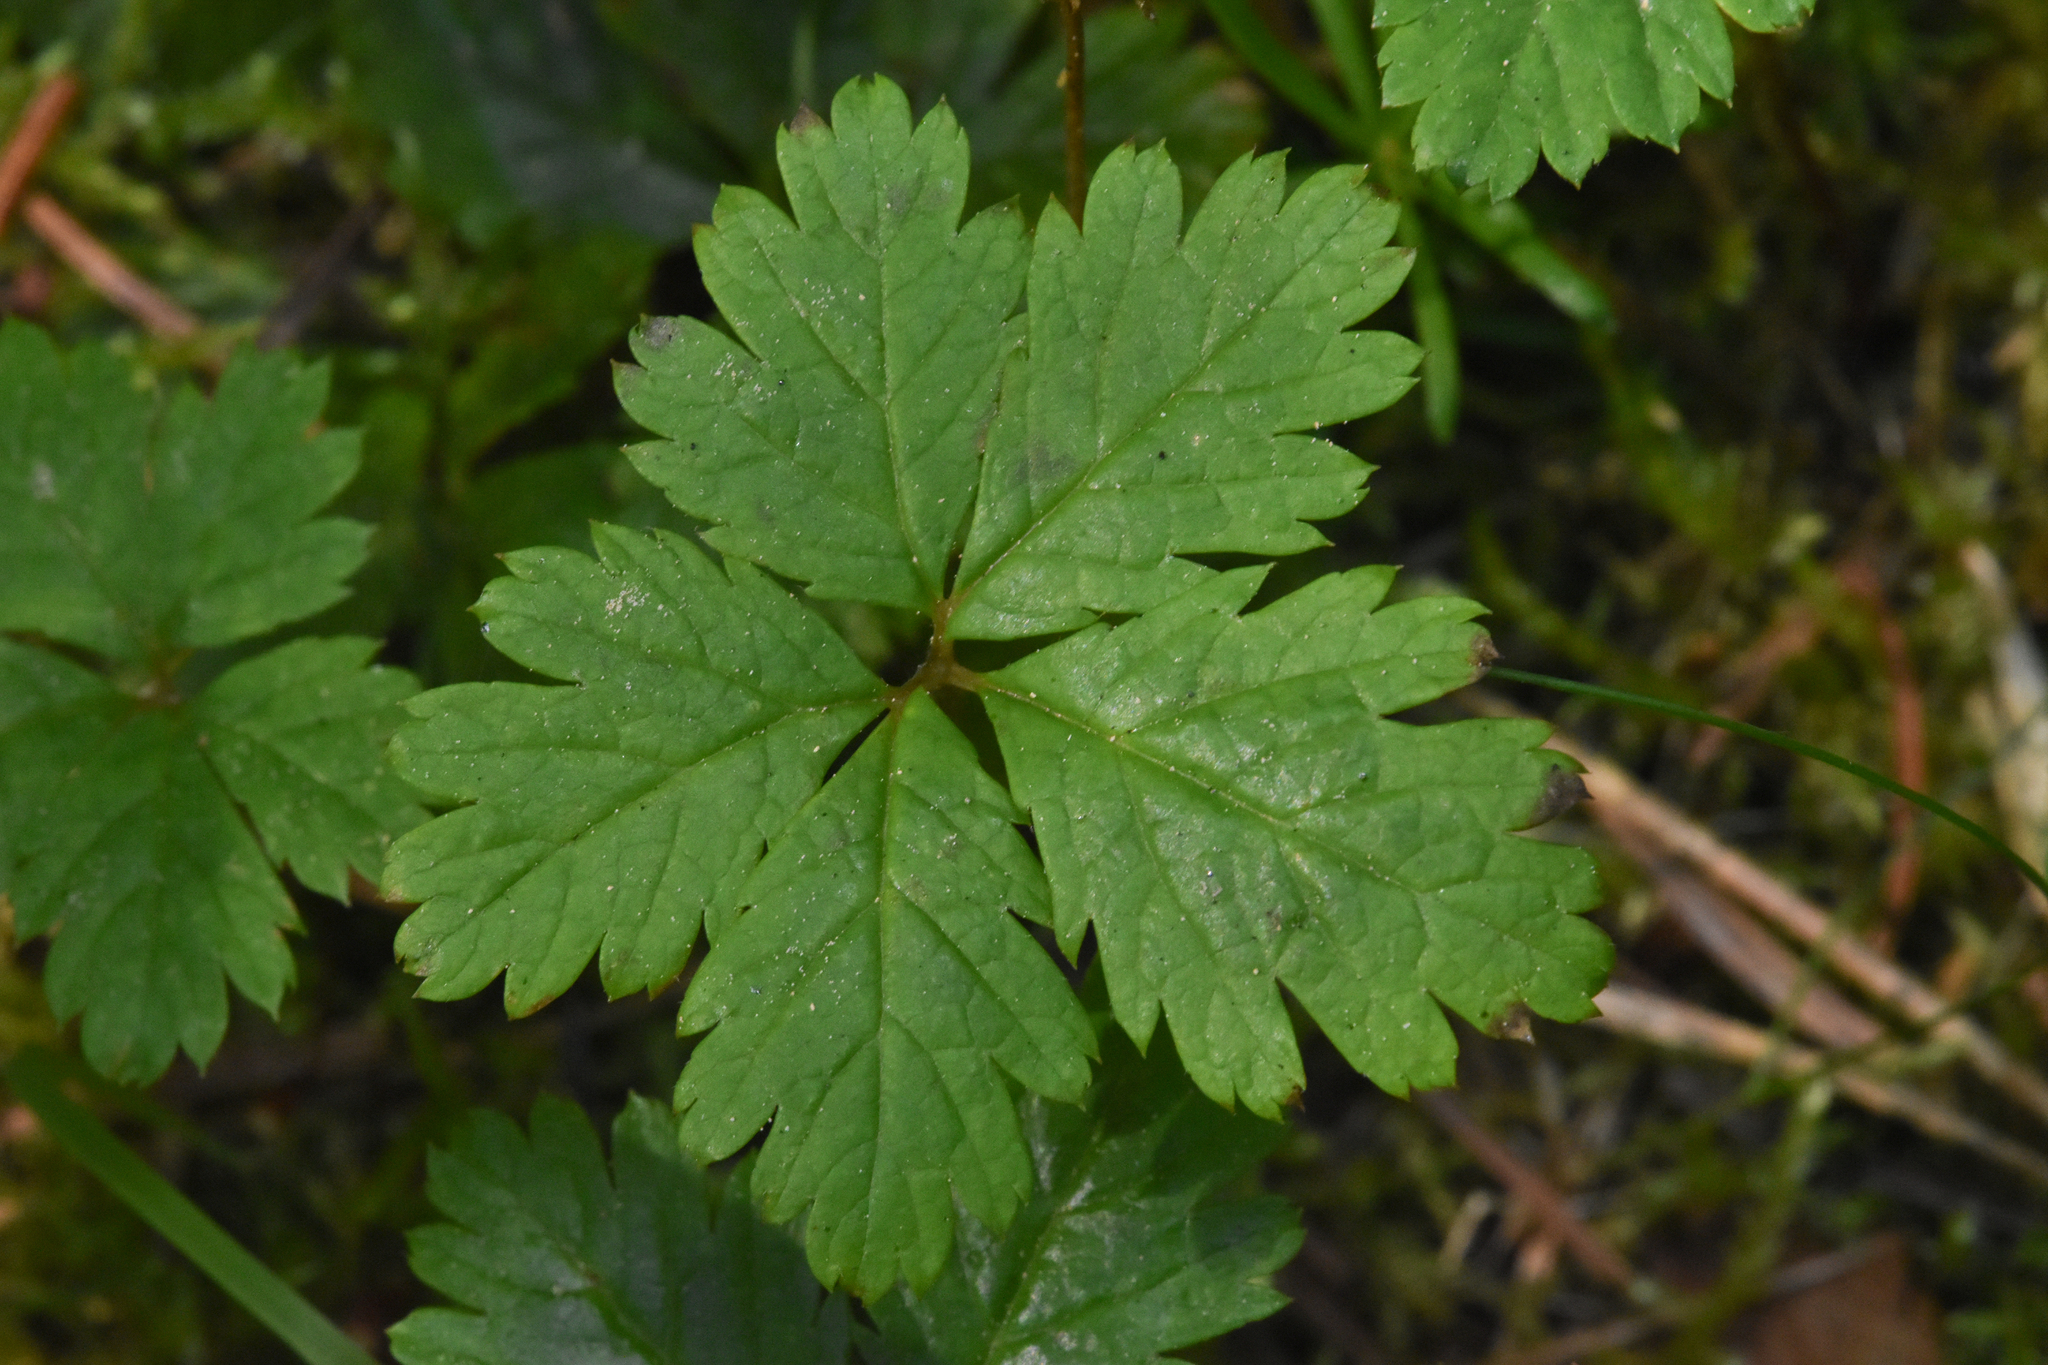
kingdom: Plantae
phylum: Tracheophyta
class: Magnoliopsida
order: Rosales
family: Rosaceae
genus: Rubus
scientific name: Rubus pedatus
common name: Creeping raspberry
